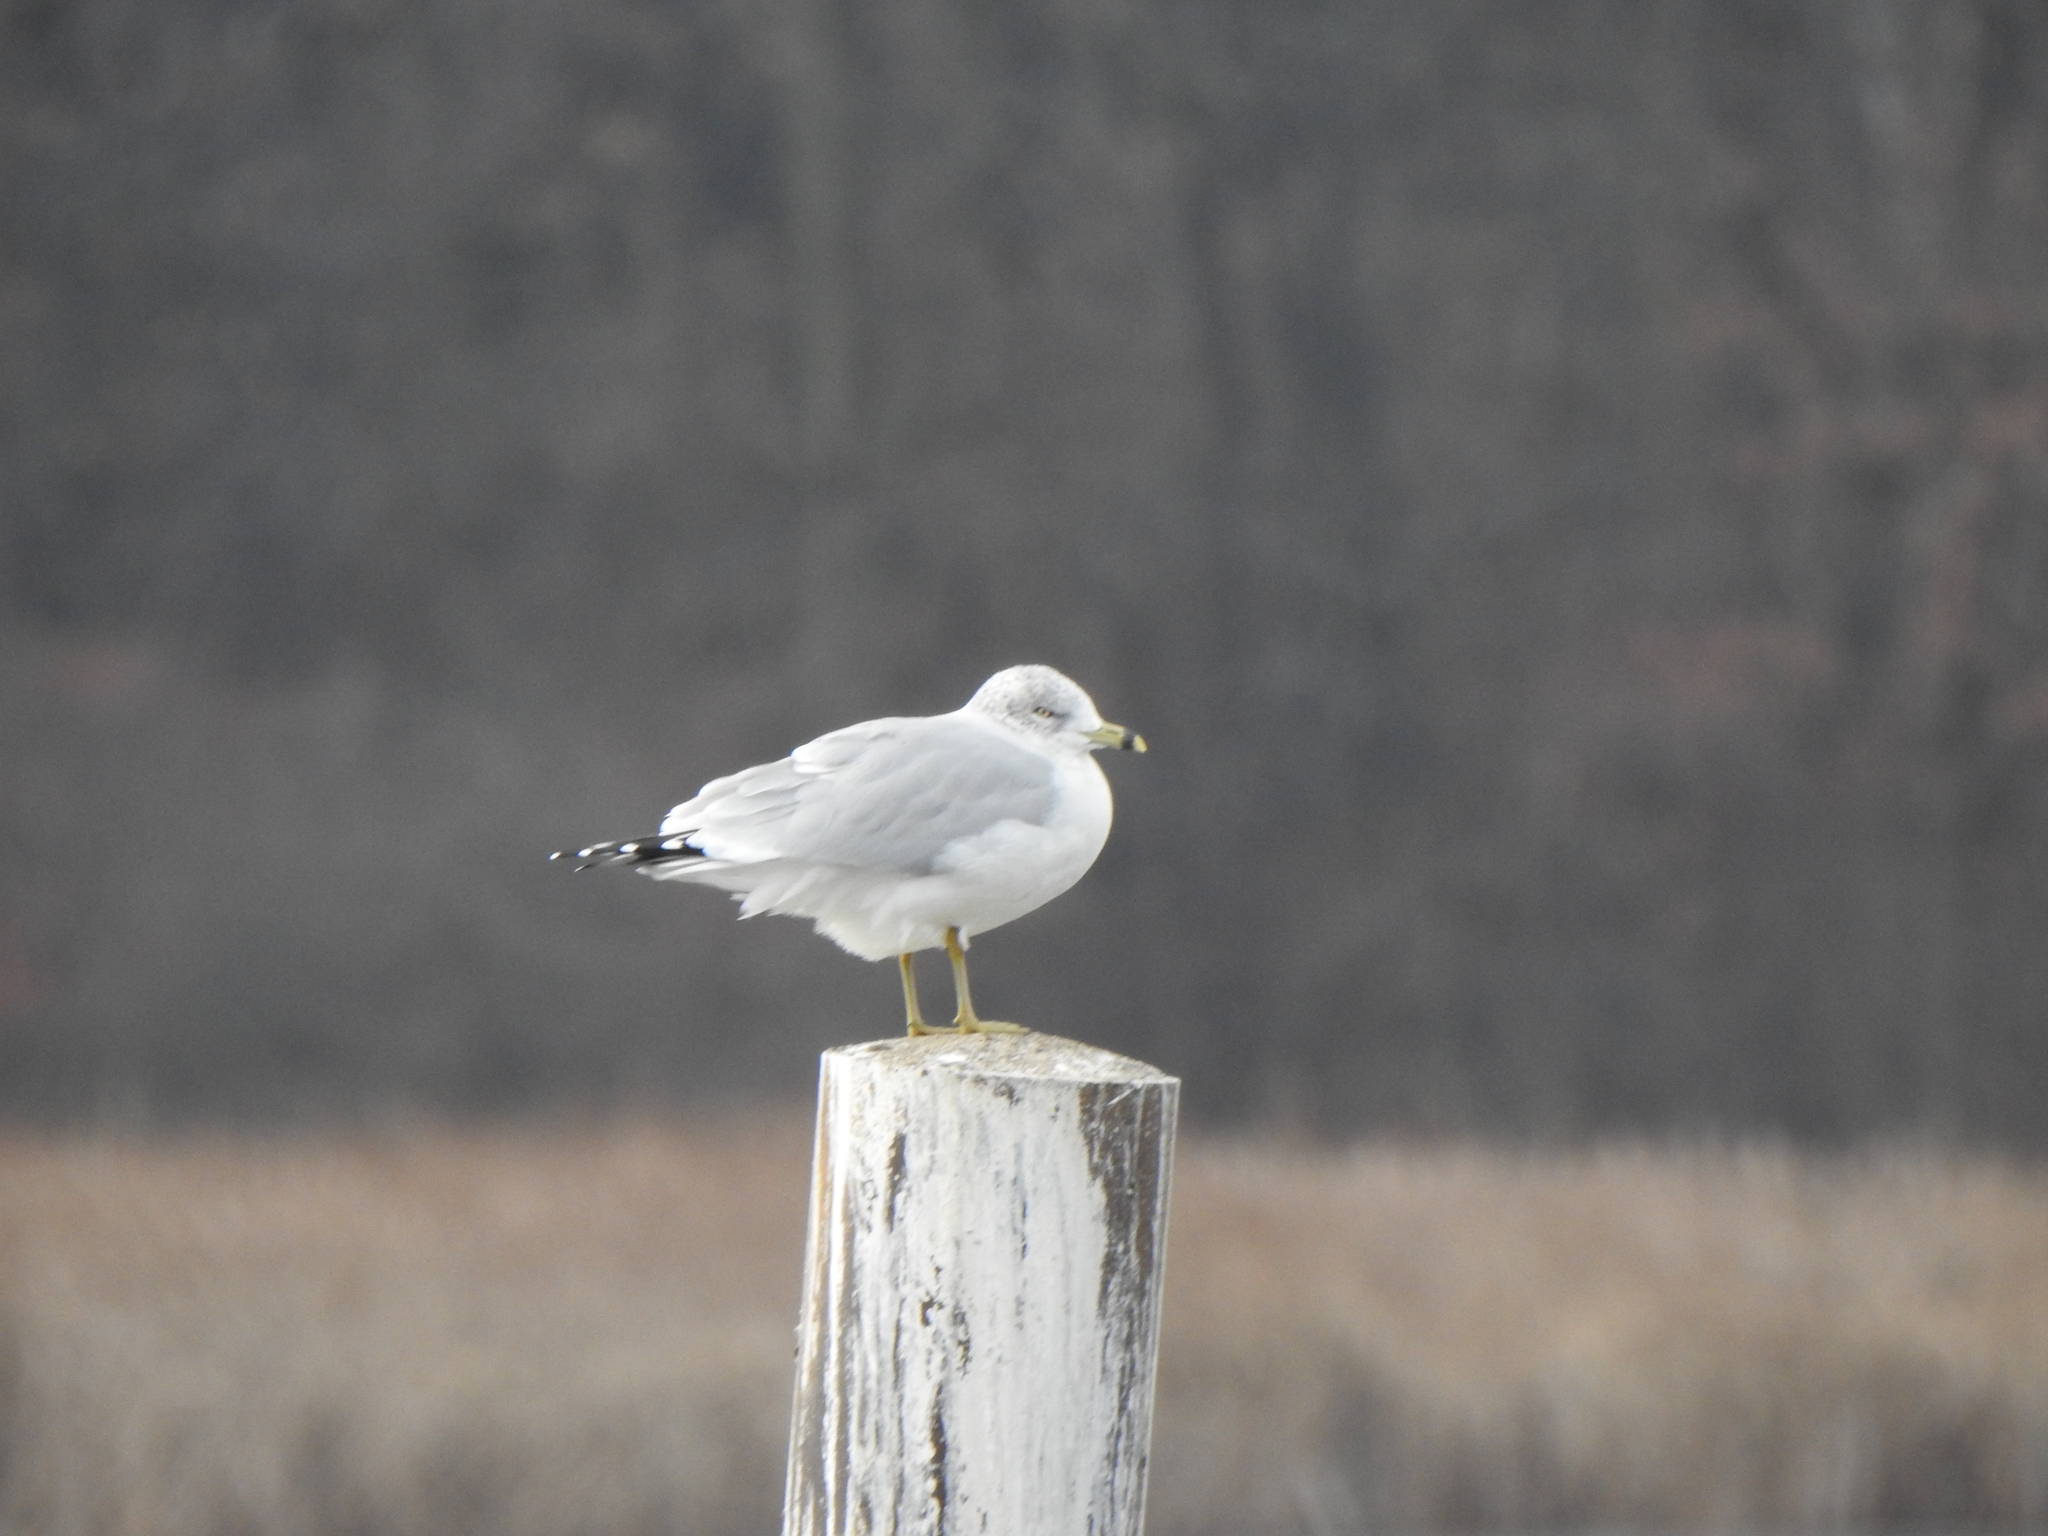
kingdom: Animalia
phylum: Chordata
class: Aves
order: Charadriiformes
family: Laridae
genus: Larus
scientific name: Larus delawarensis
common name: Ring-billed gull
